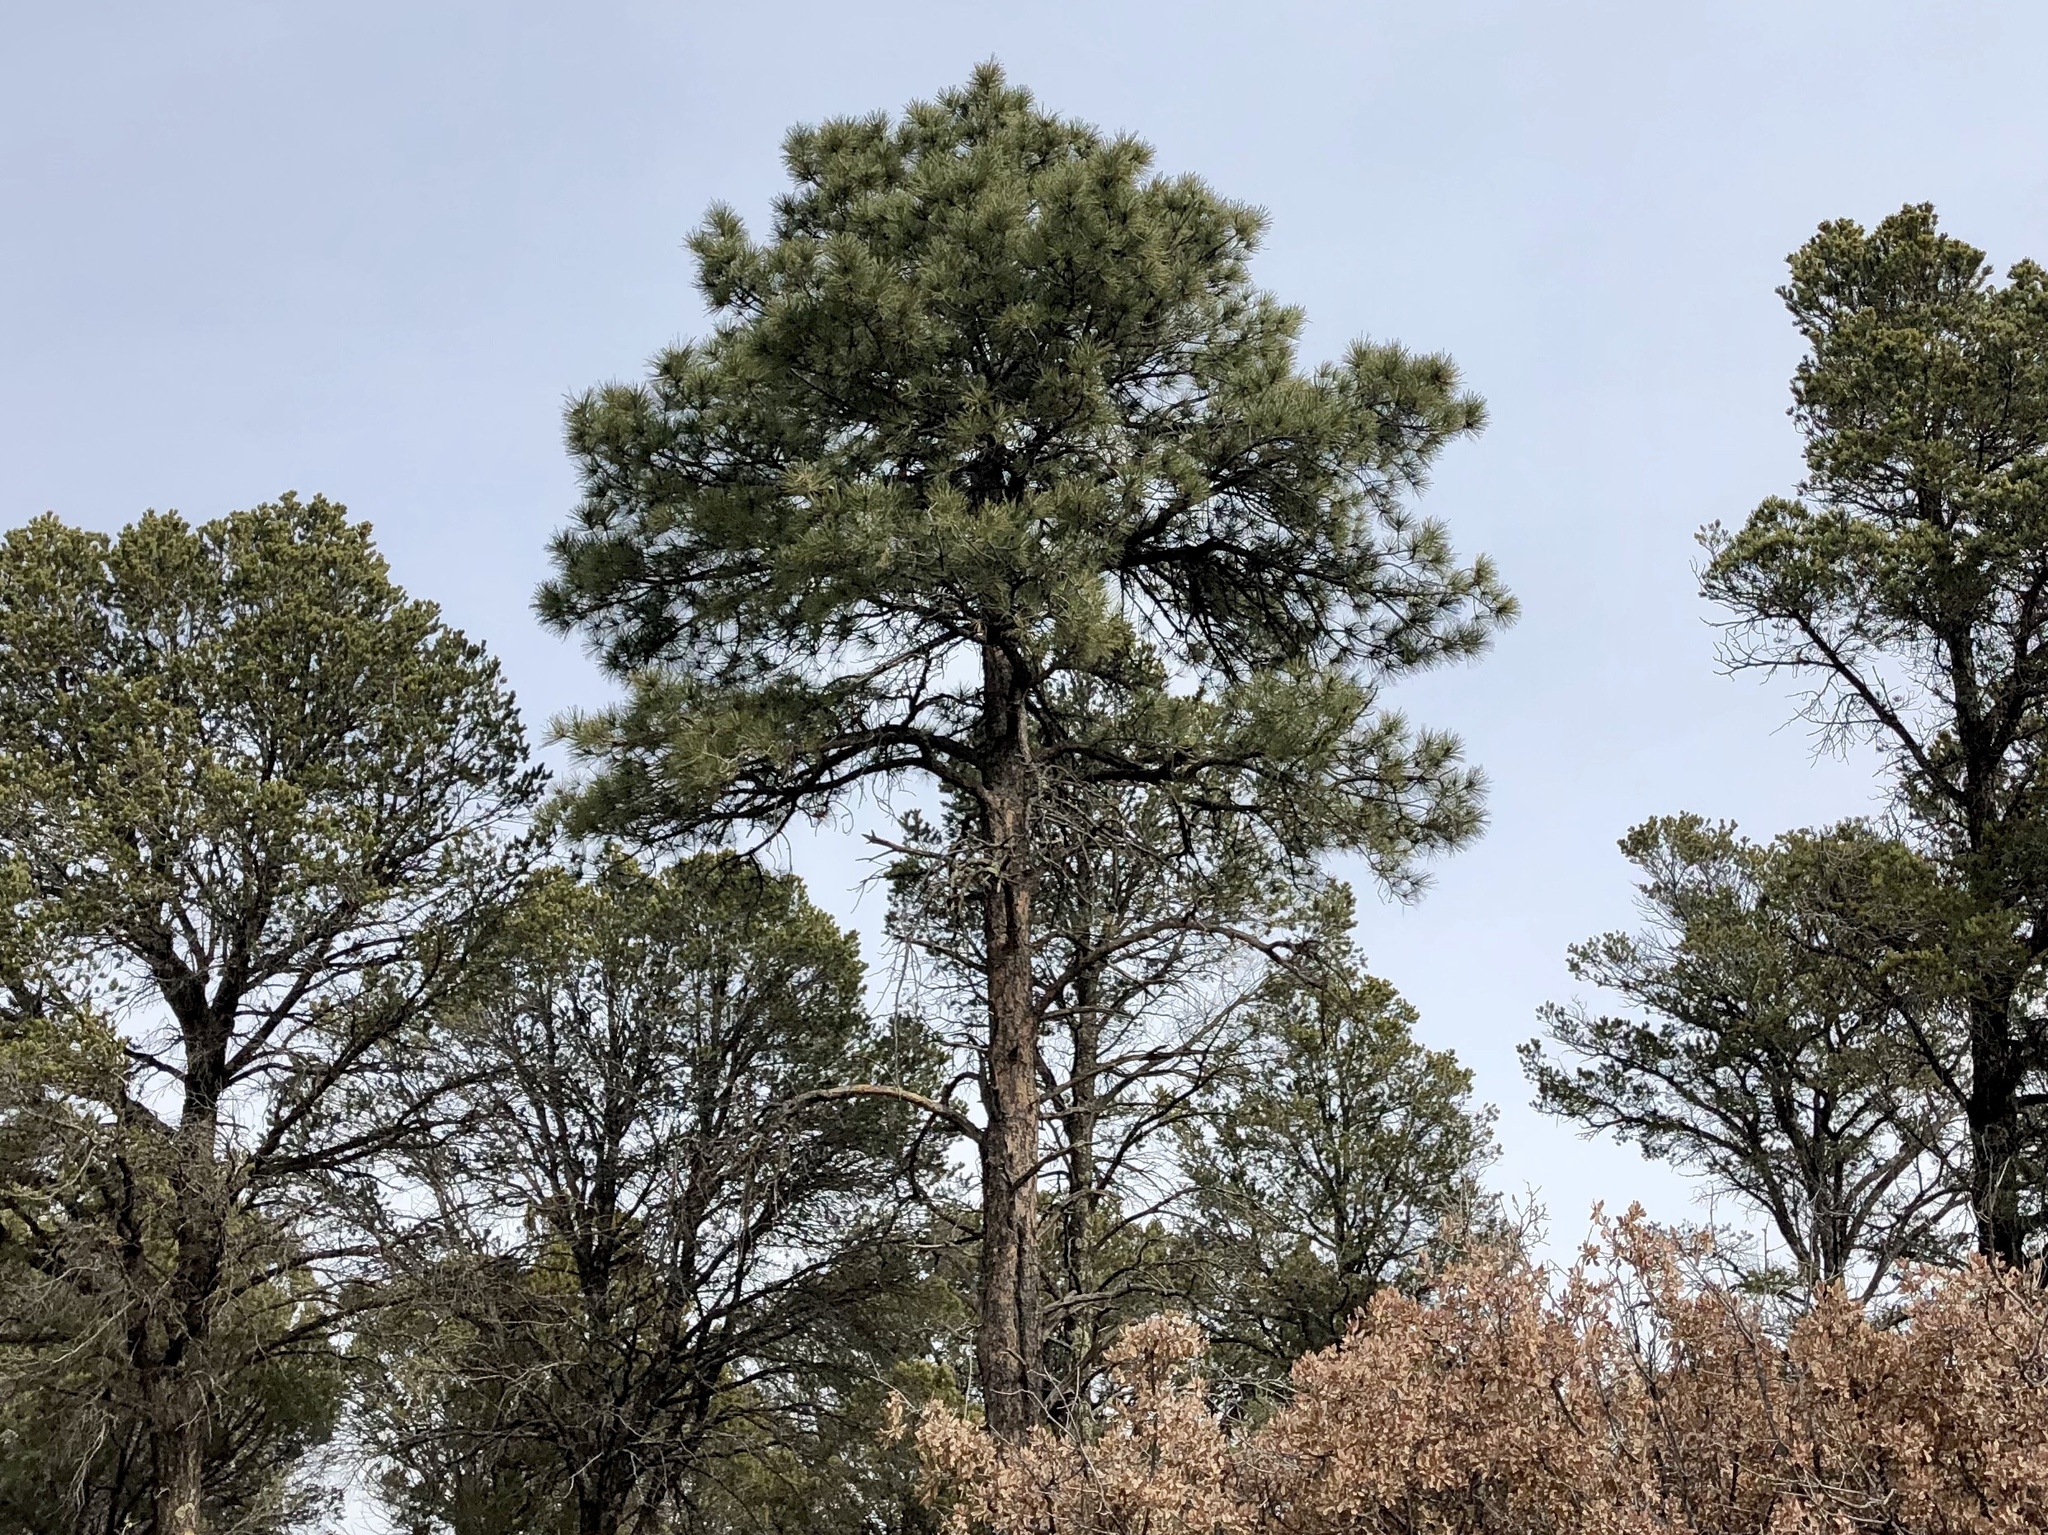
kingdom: Plantae
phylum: Tracheophyta
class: Pinopsida
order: Pinales
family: Pinaceae
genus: Pinus
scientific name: Pinus ponderosa
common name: Western yellow-pine
